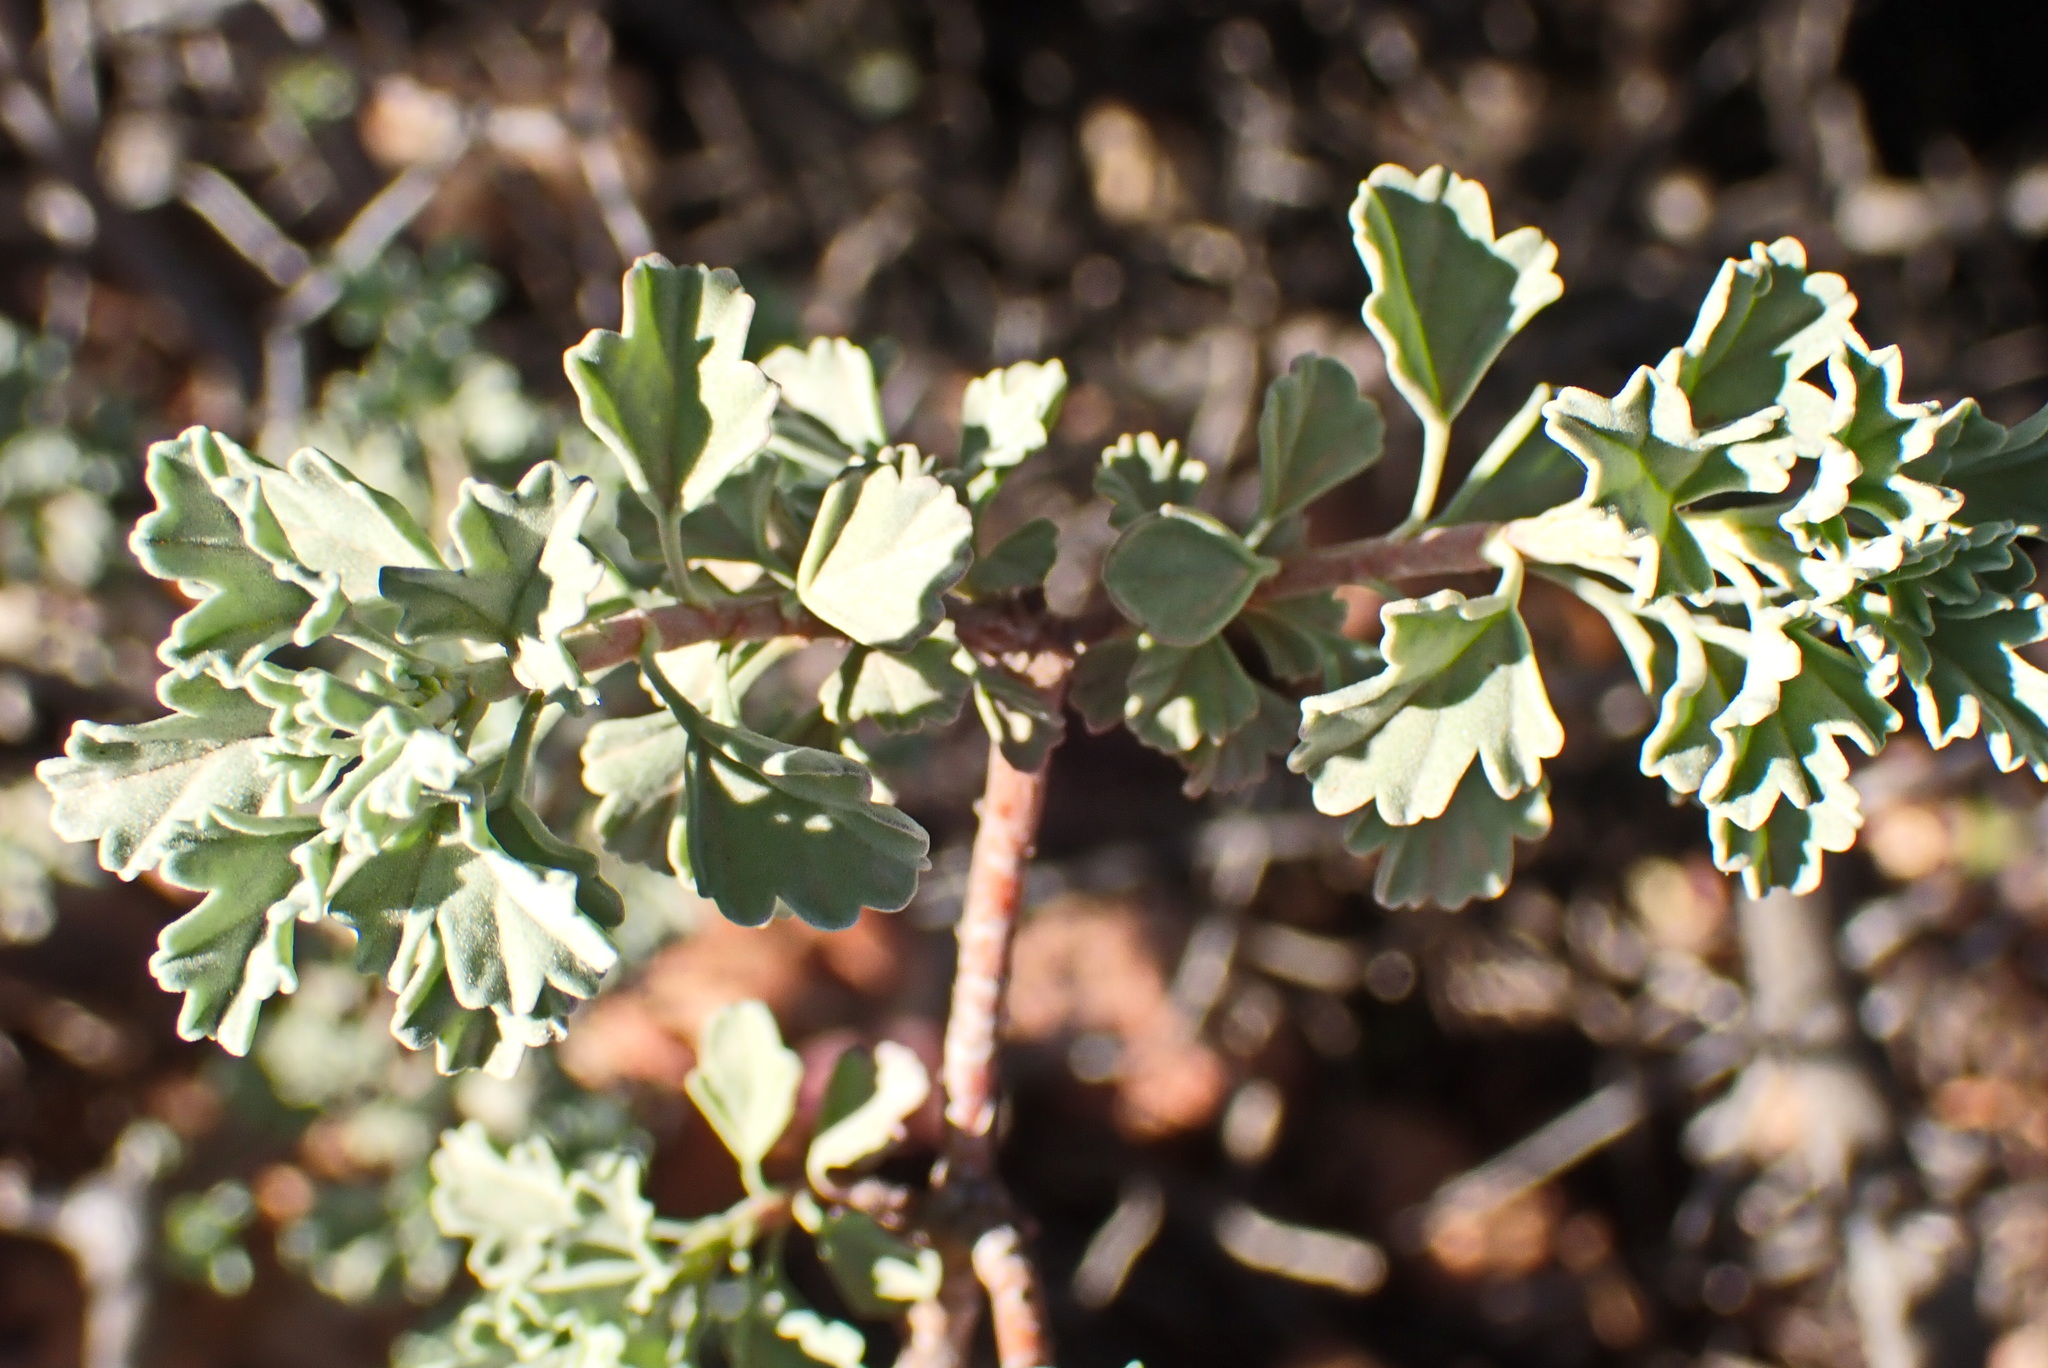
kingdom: Plantae
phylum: Tracheophyta
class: Magnoliopsida
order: Geraniales
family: Geraniaceae
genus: Pelargonium
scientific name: Pelargonium exstipulatum
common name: Soft-leaf trifid pelargonium
